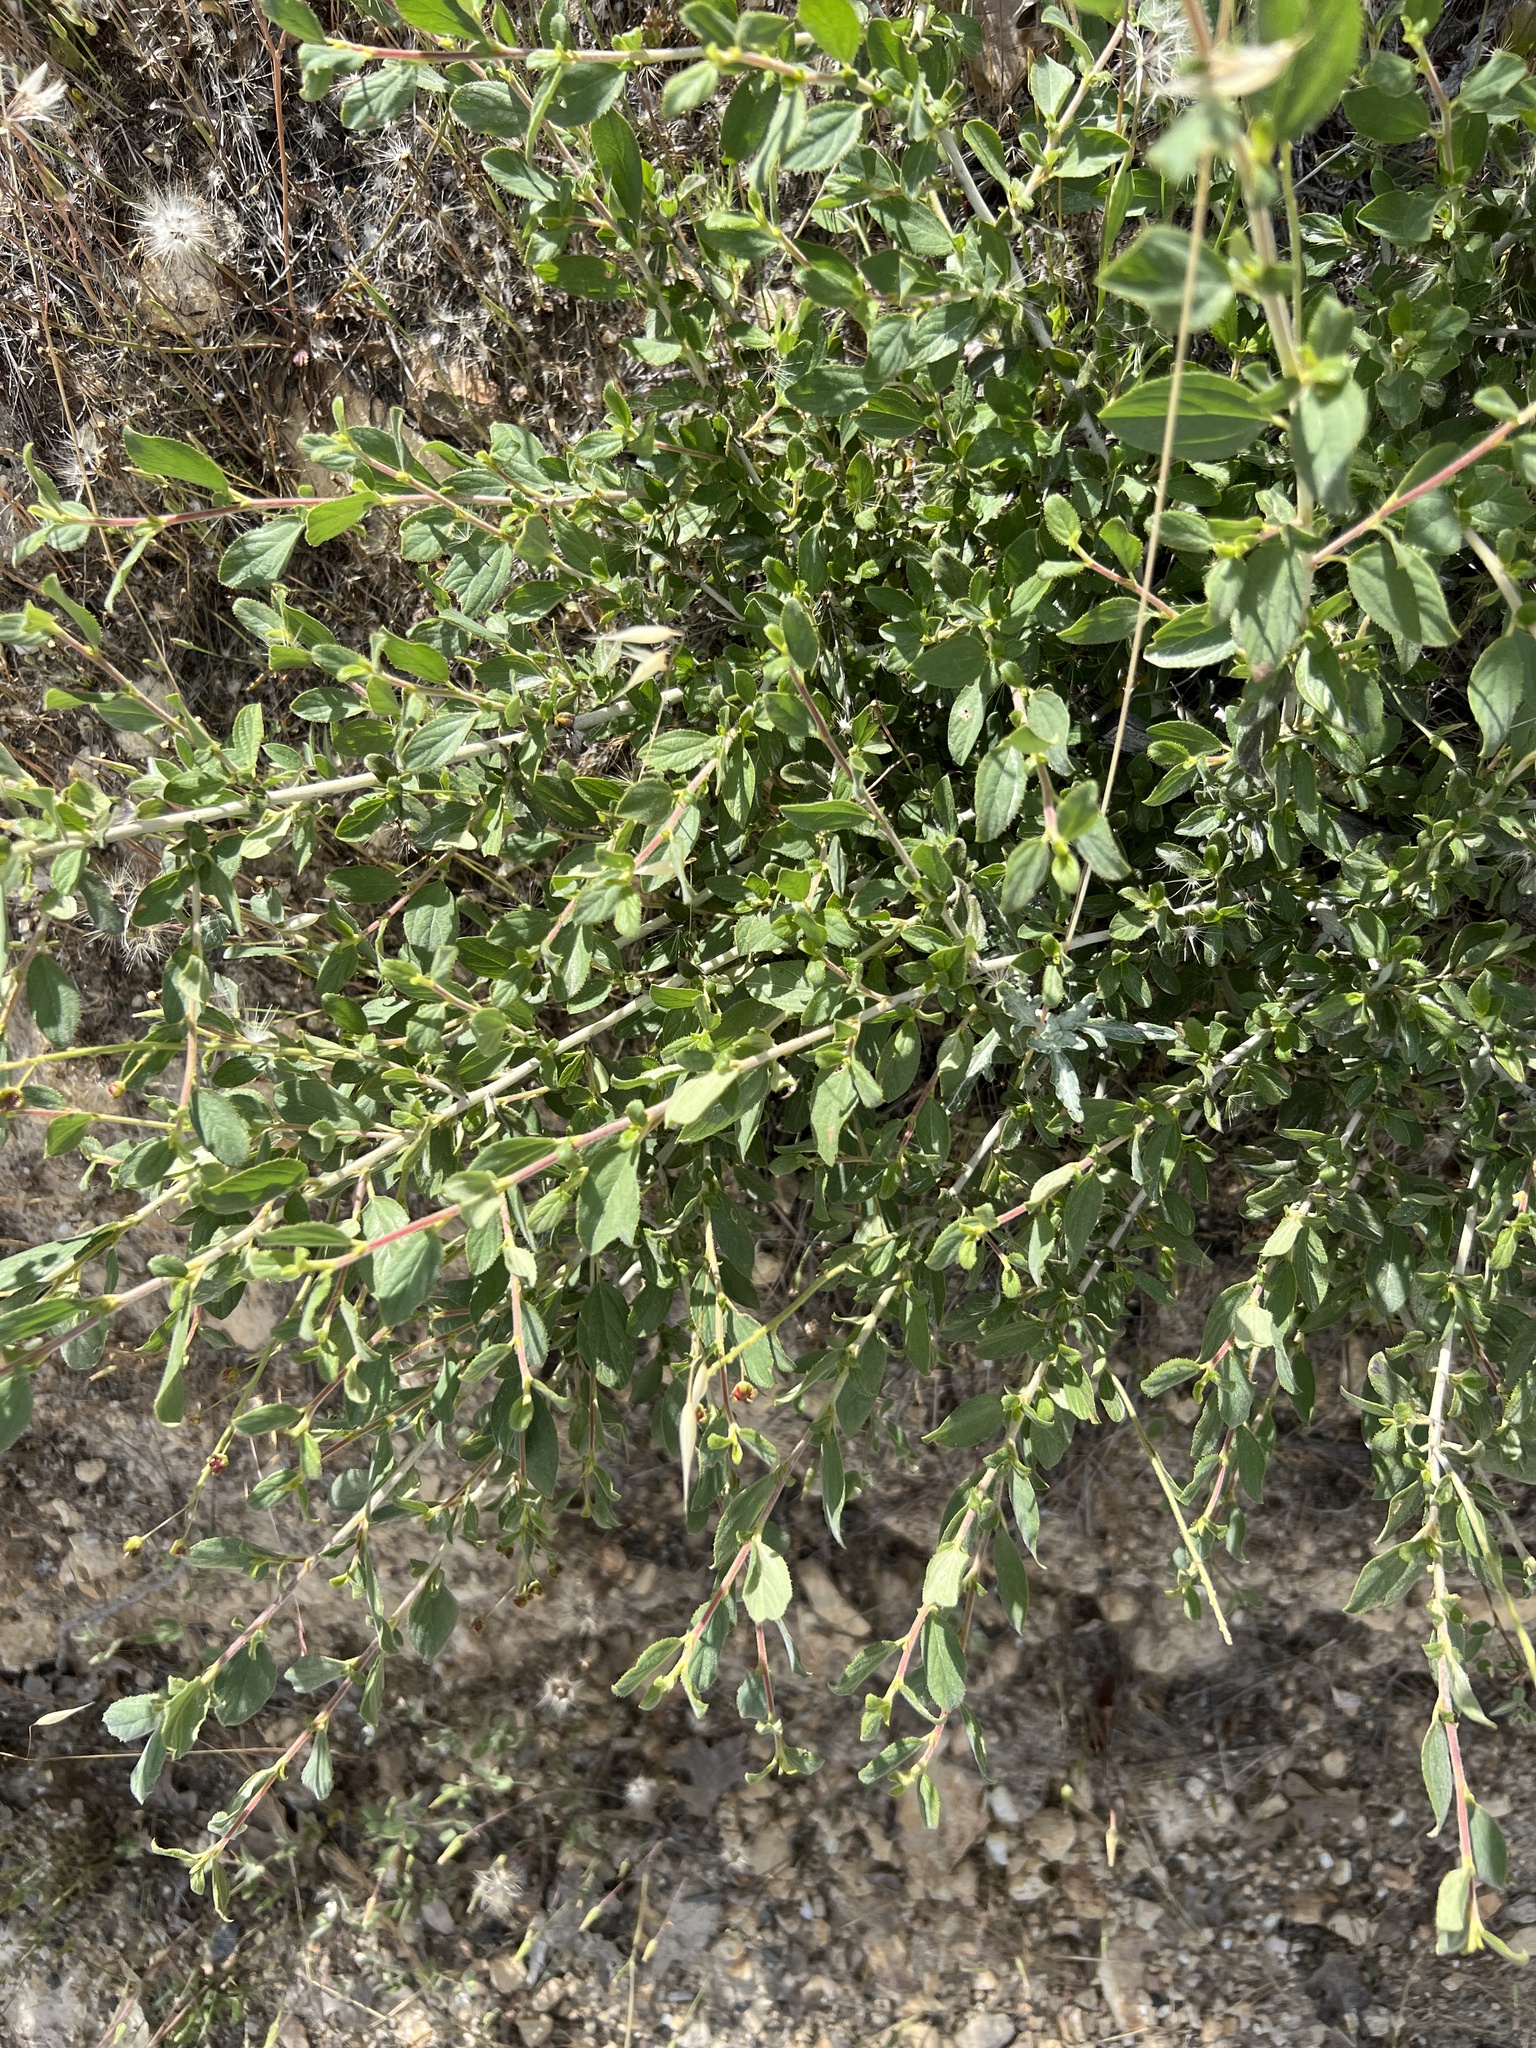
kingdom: Plantae
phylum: Tracheophyta
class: Magnoliopsida
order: Rosales
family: Rhamnaceae
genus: Ceanothus
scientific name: Ceanothus lemmonii
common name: Lemmon's ceanothus
